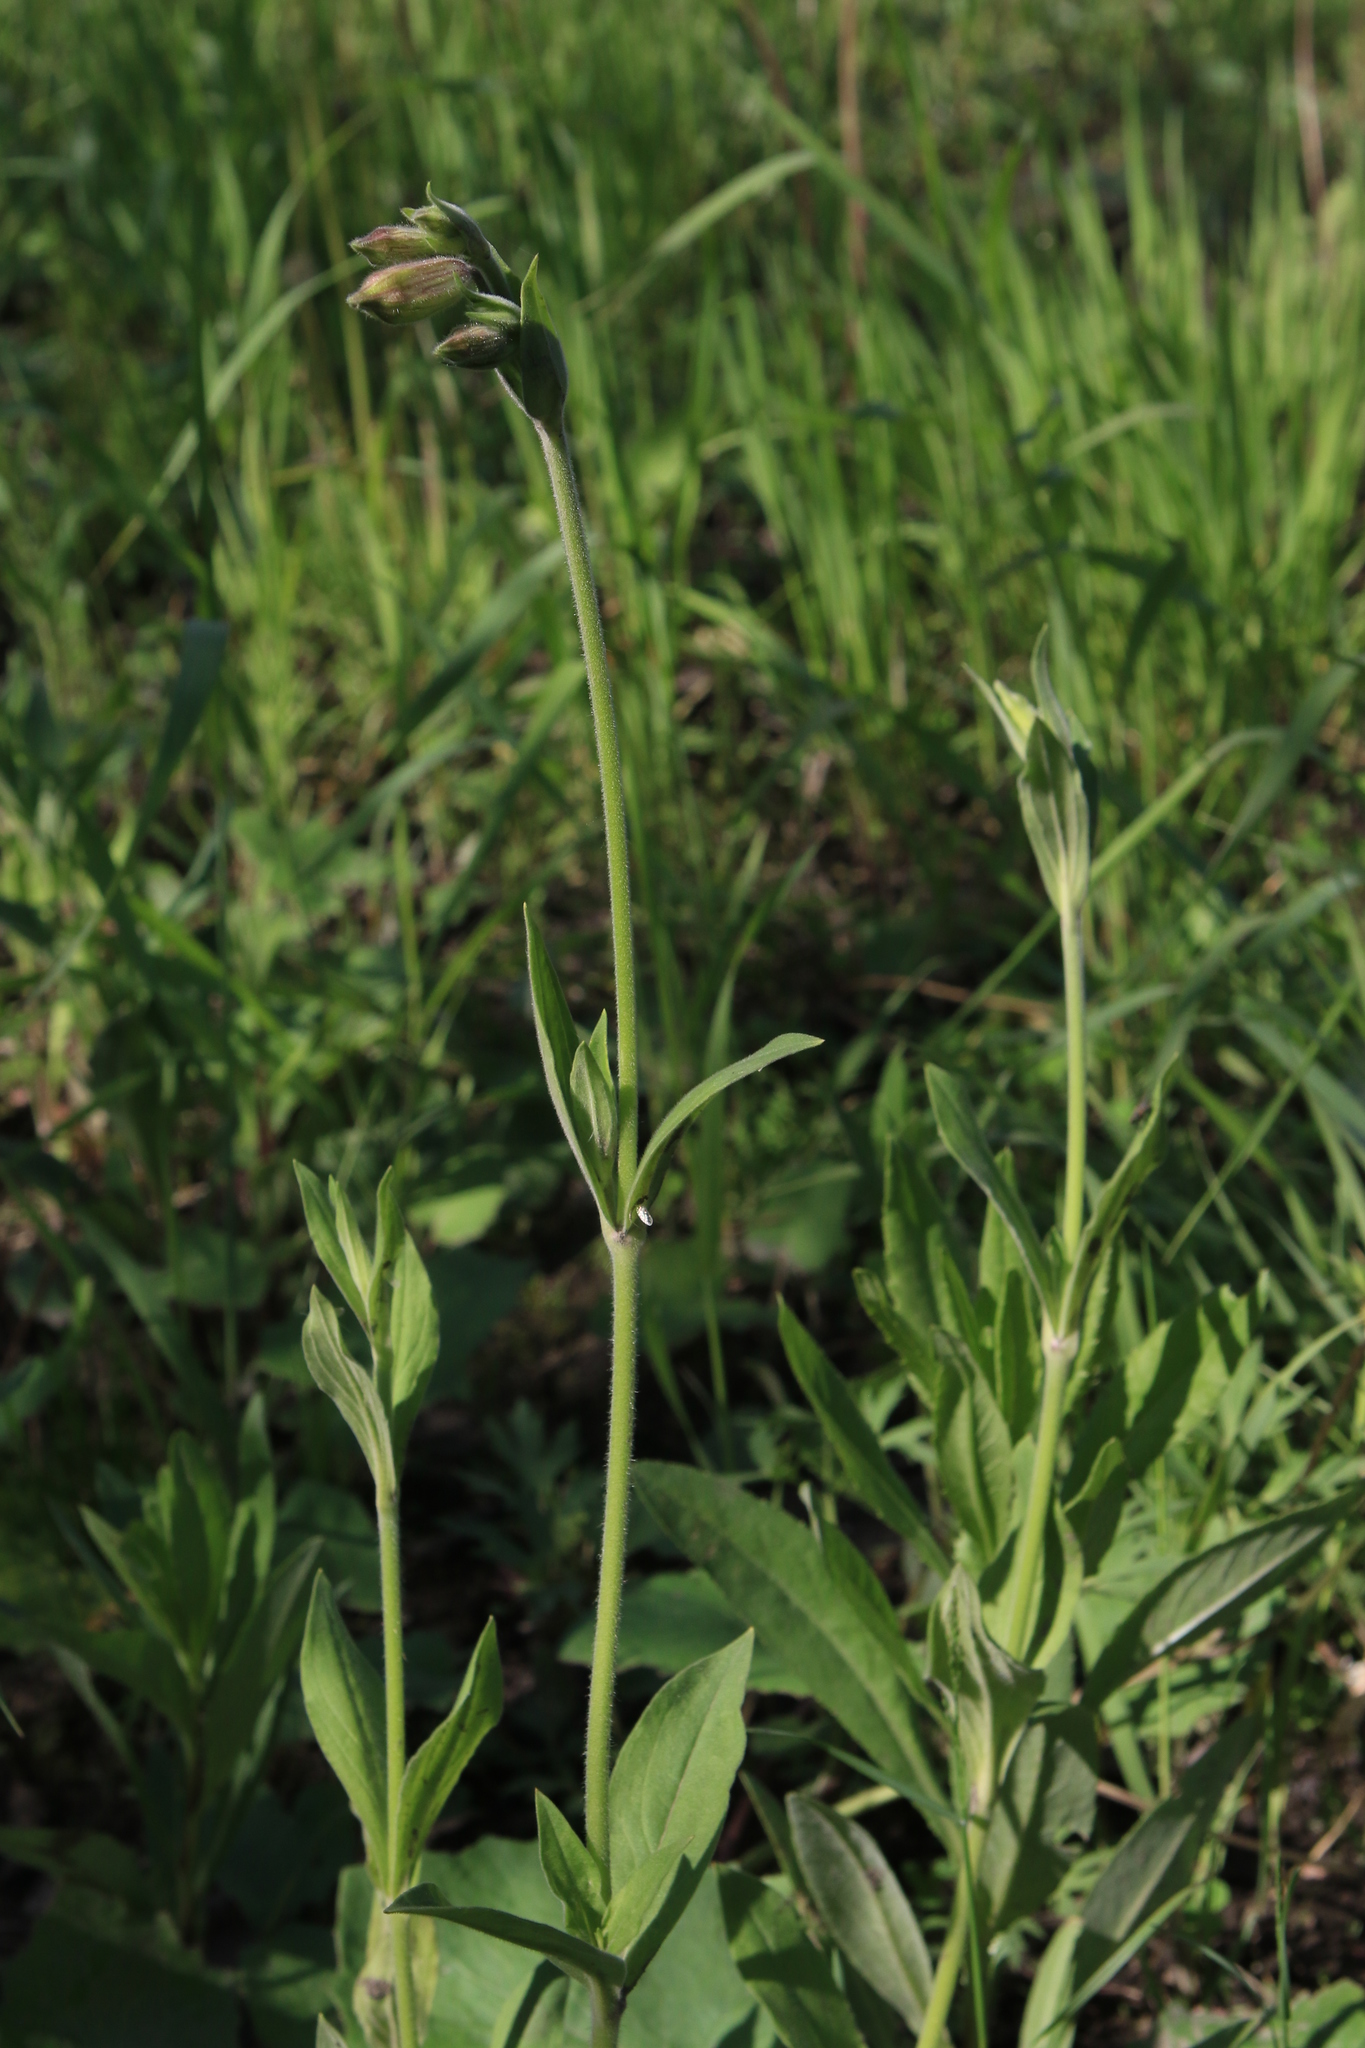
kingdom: Plantae
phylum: Tracheophyta
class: Magnoliopsida
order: Caryophyllales
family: Caryophyllaceae
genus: Silene
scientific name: Silene latifolia
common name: White campion
